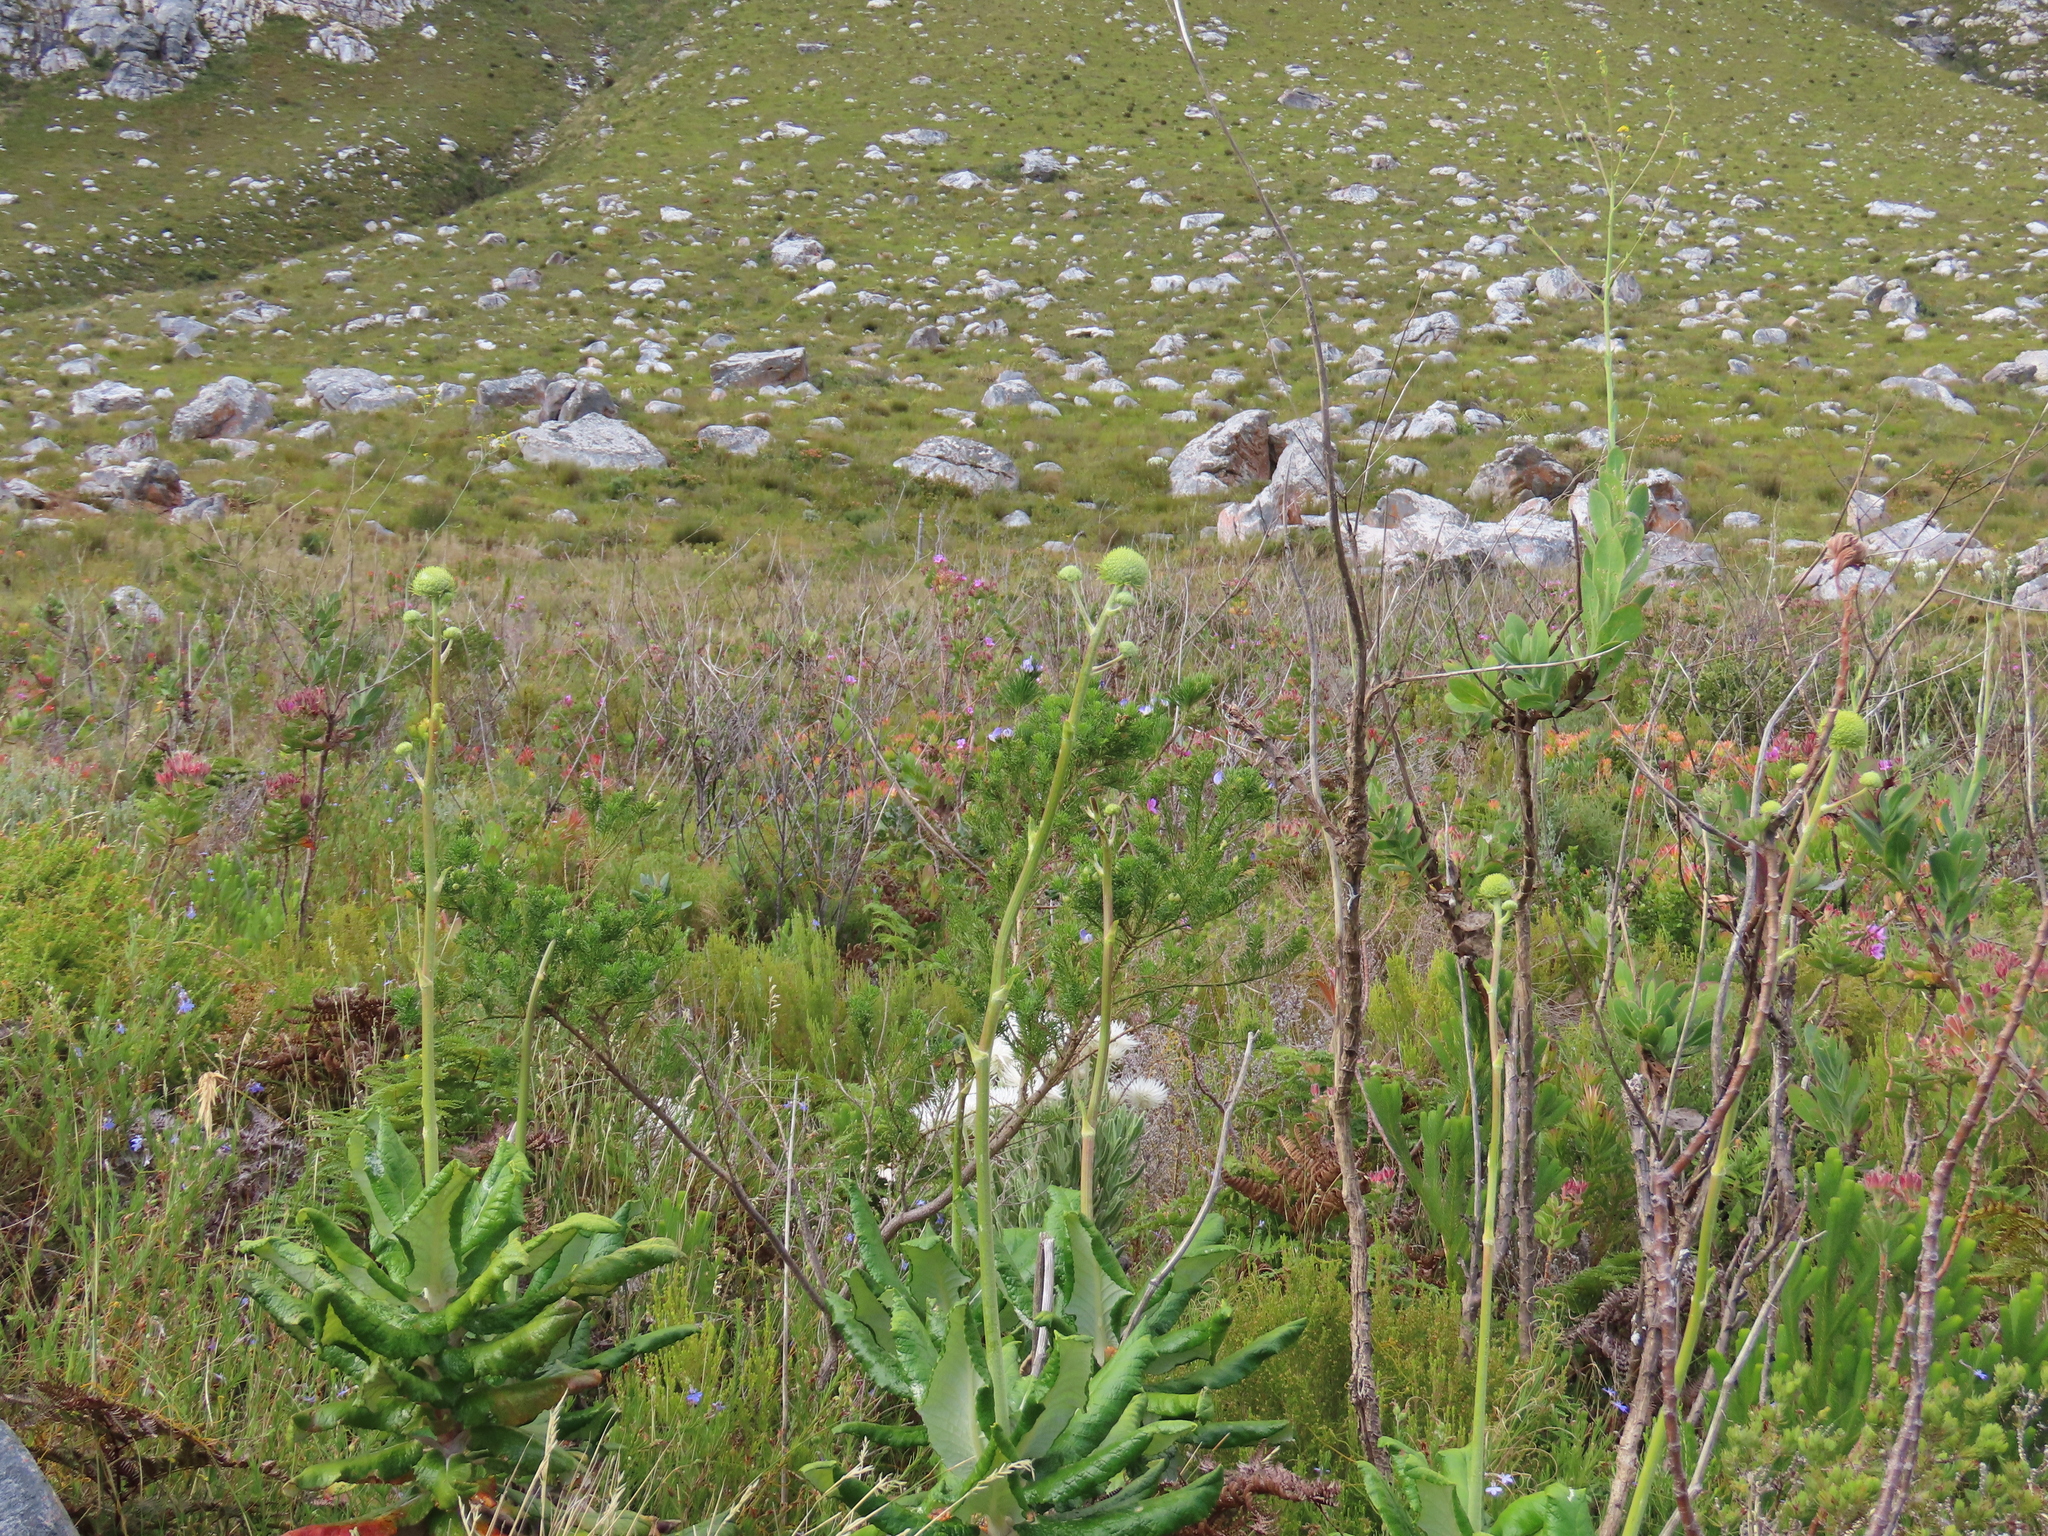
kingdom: Plantae
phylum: Tracheophyta
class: Magnoliopsida
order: Apiales
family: Apiaceae
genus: Hermas
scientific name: Hermas villosa
